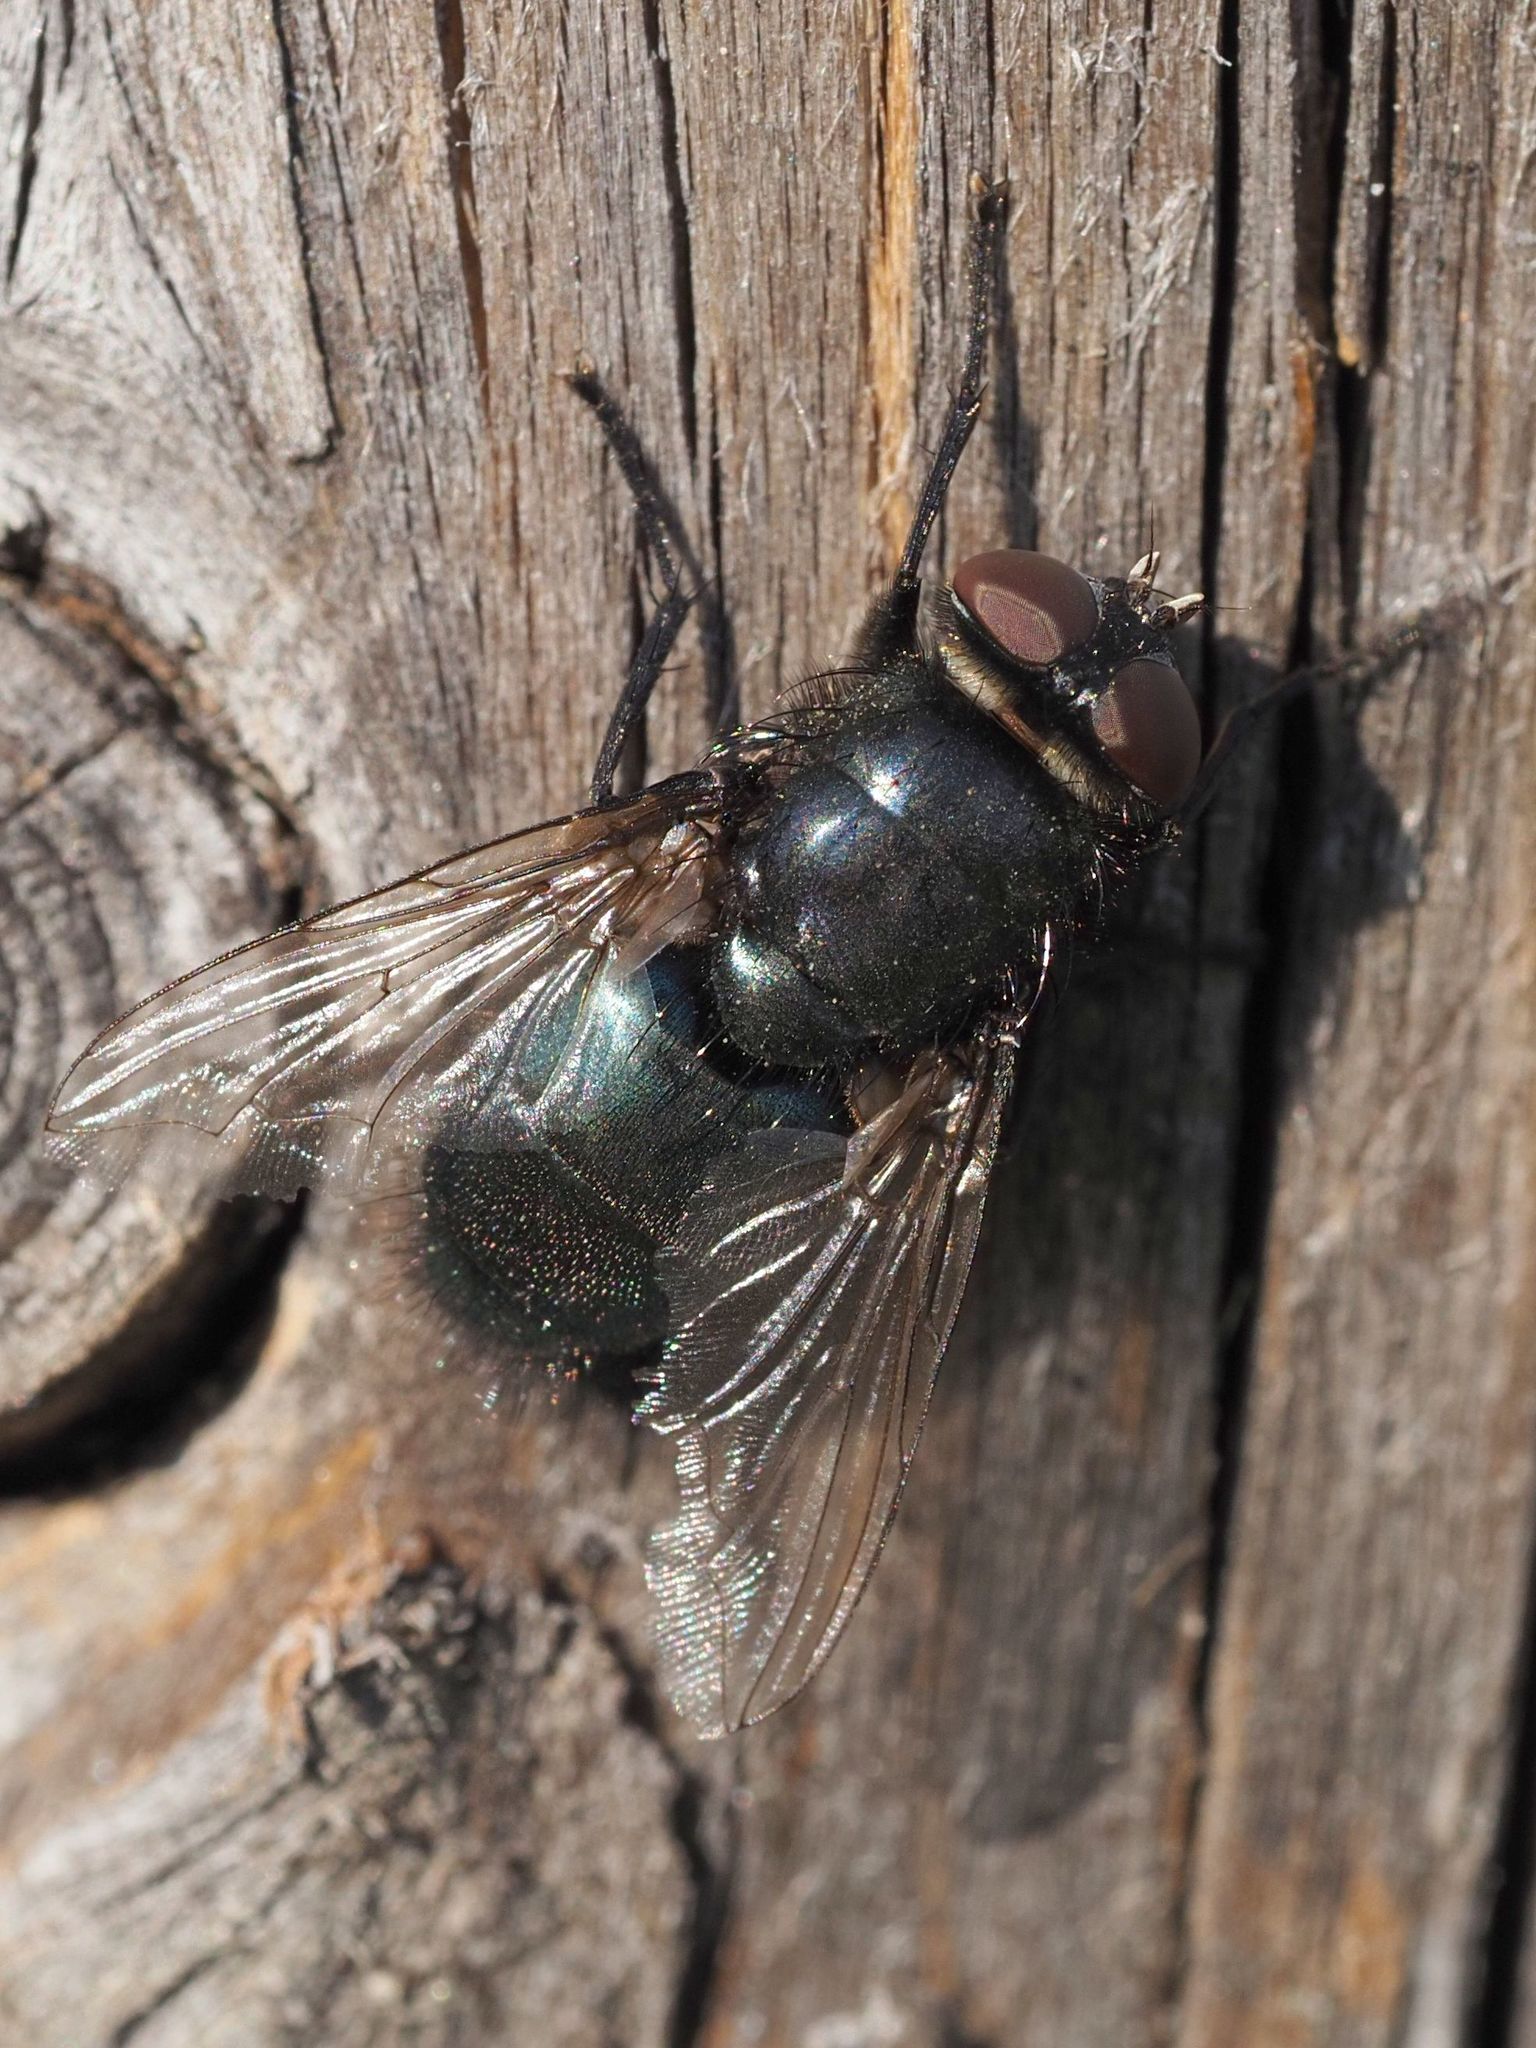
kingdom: Animalia
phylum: Arthropoda
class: Insecta
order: Diptera
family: Calliphoridae
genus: Protophormia
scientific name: Protophormia terraenovae
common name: Blackbottle
